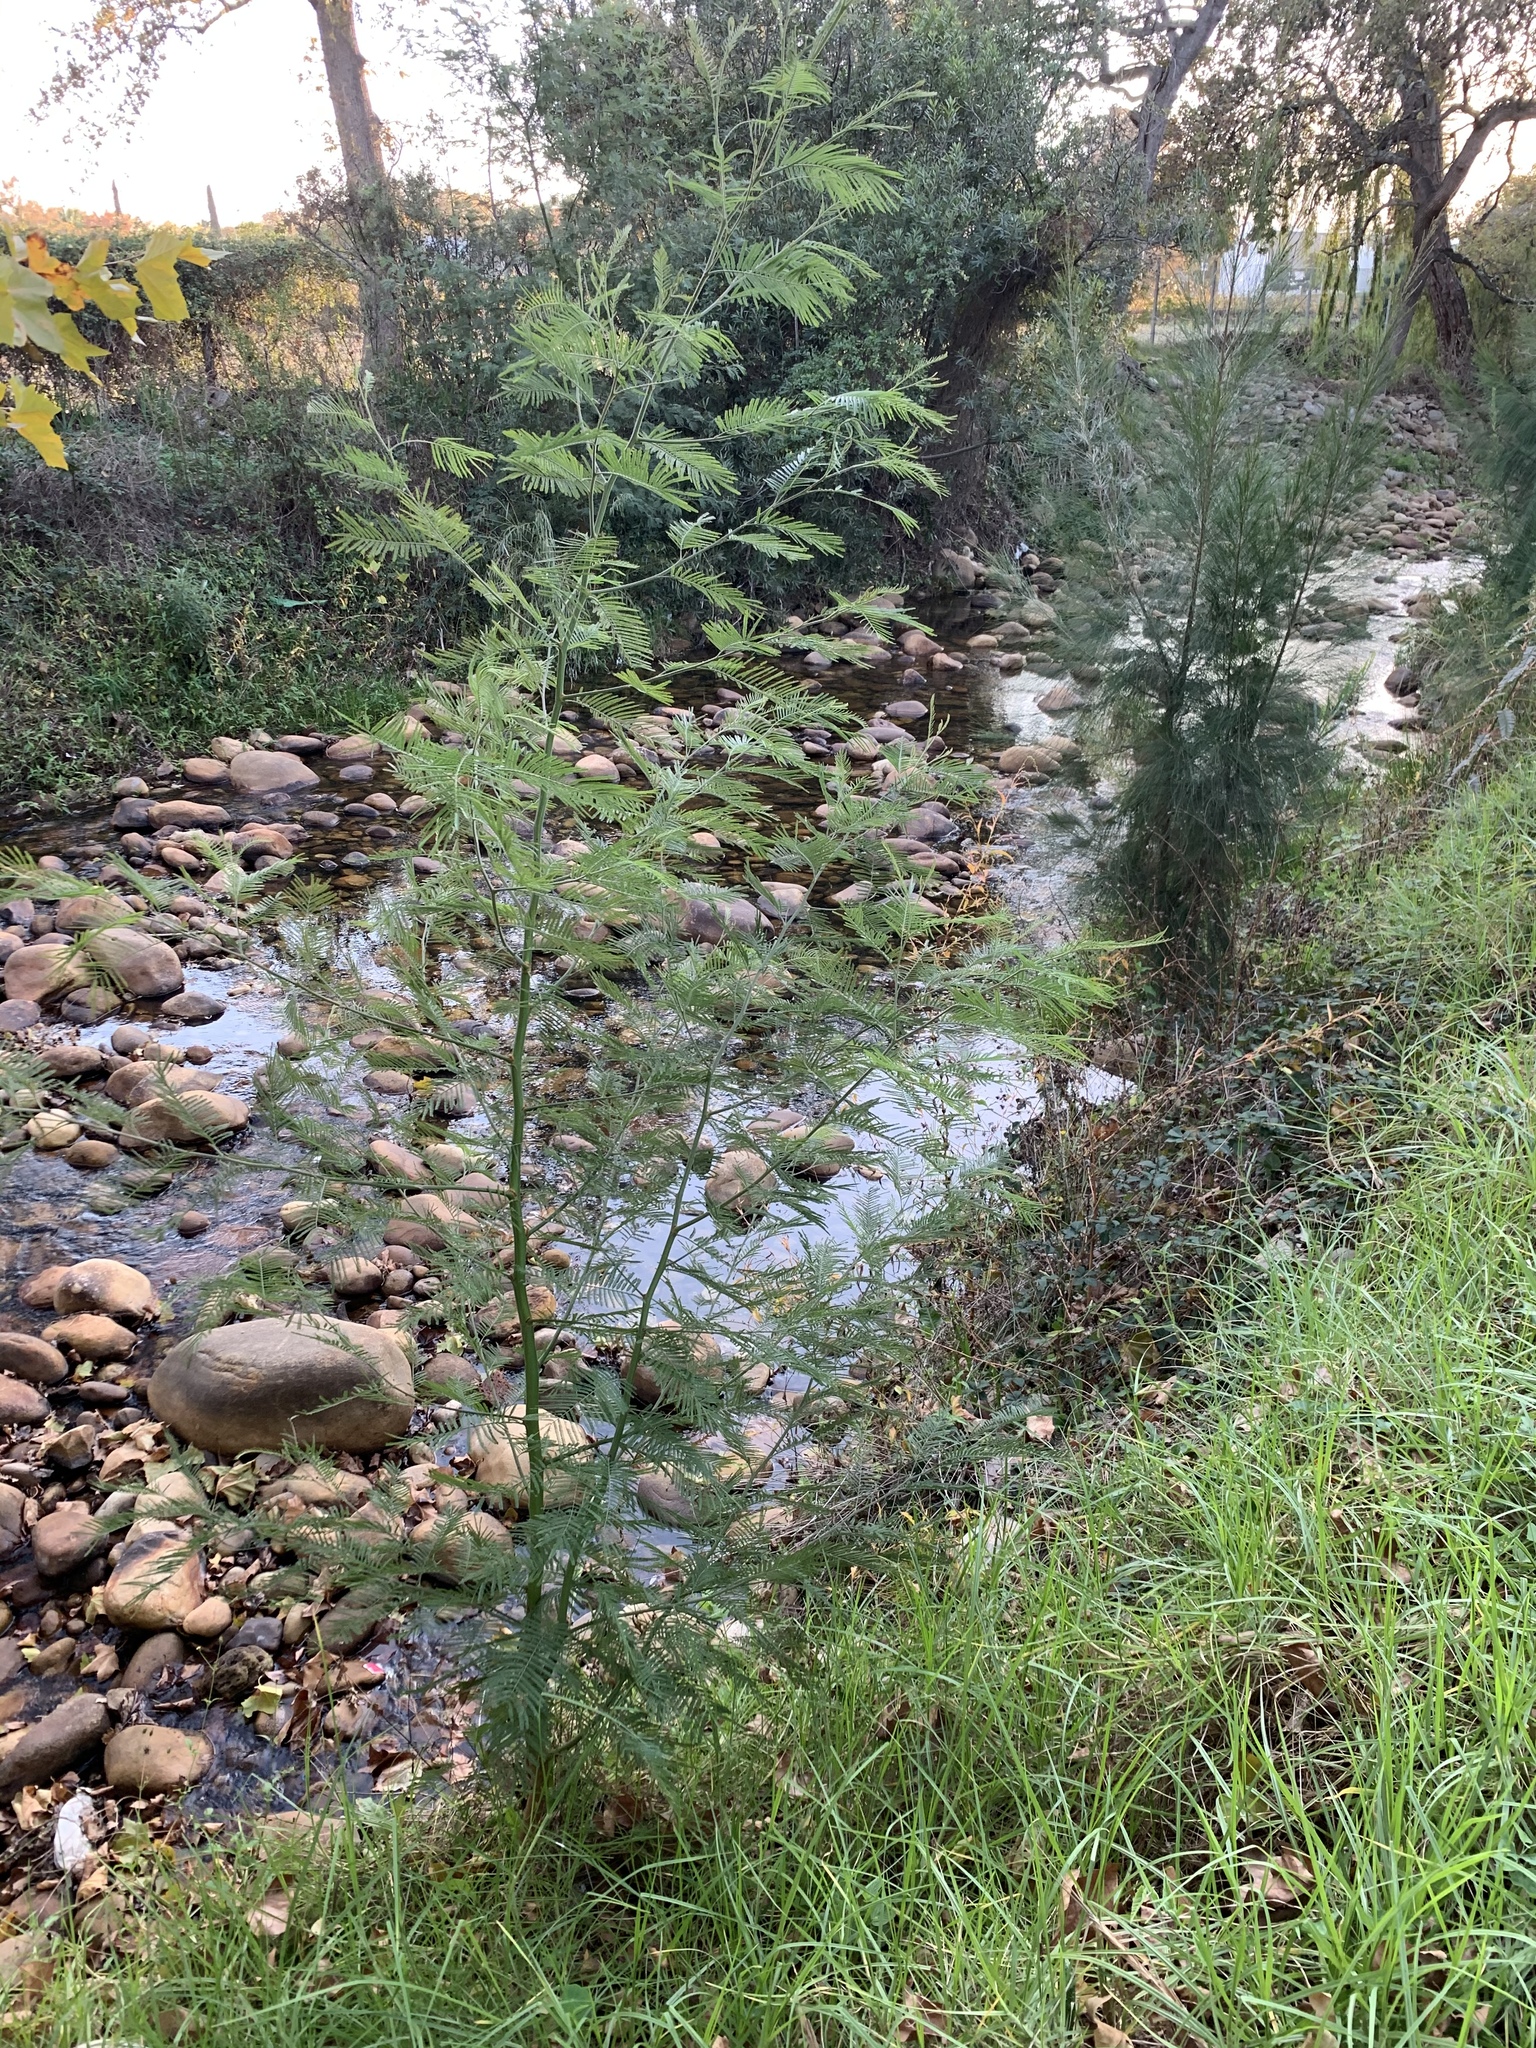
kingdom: Plantae
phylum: Tracheophyta
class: Magnoliopsida
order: Fabales
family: Fabaceae
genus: Acacia
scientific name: Acacia mearnsii
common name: Black wattle
